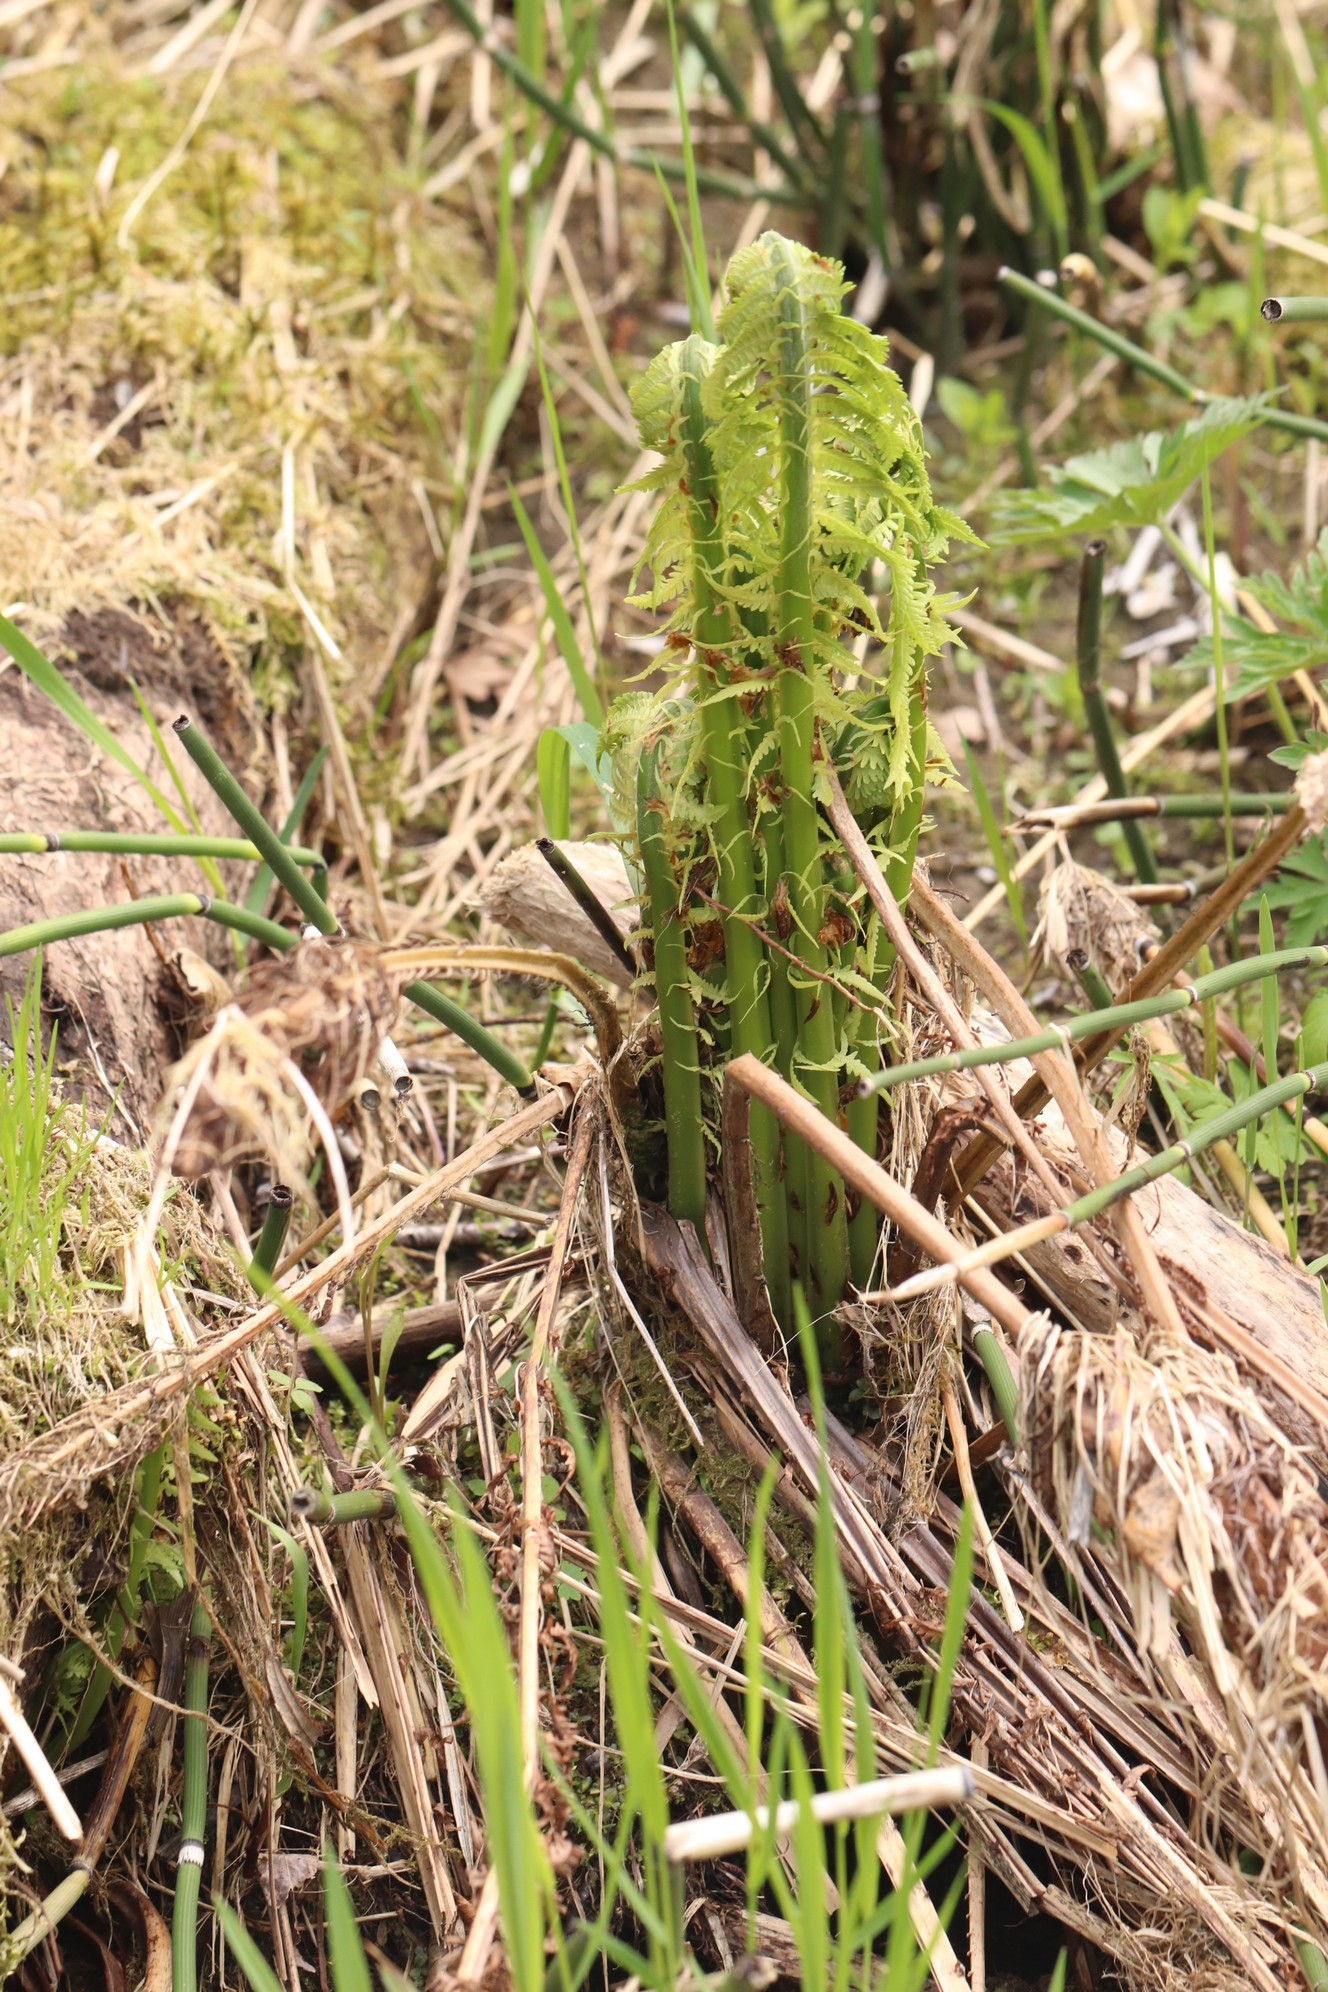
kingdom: Plantae
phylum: Tracheophyta
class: Polypodiopsida
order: Polypodiales
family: Onocleaceae
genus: Matteuccia
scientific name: Matteuccia struthiopteris
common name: Ostrich fern
